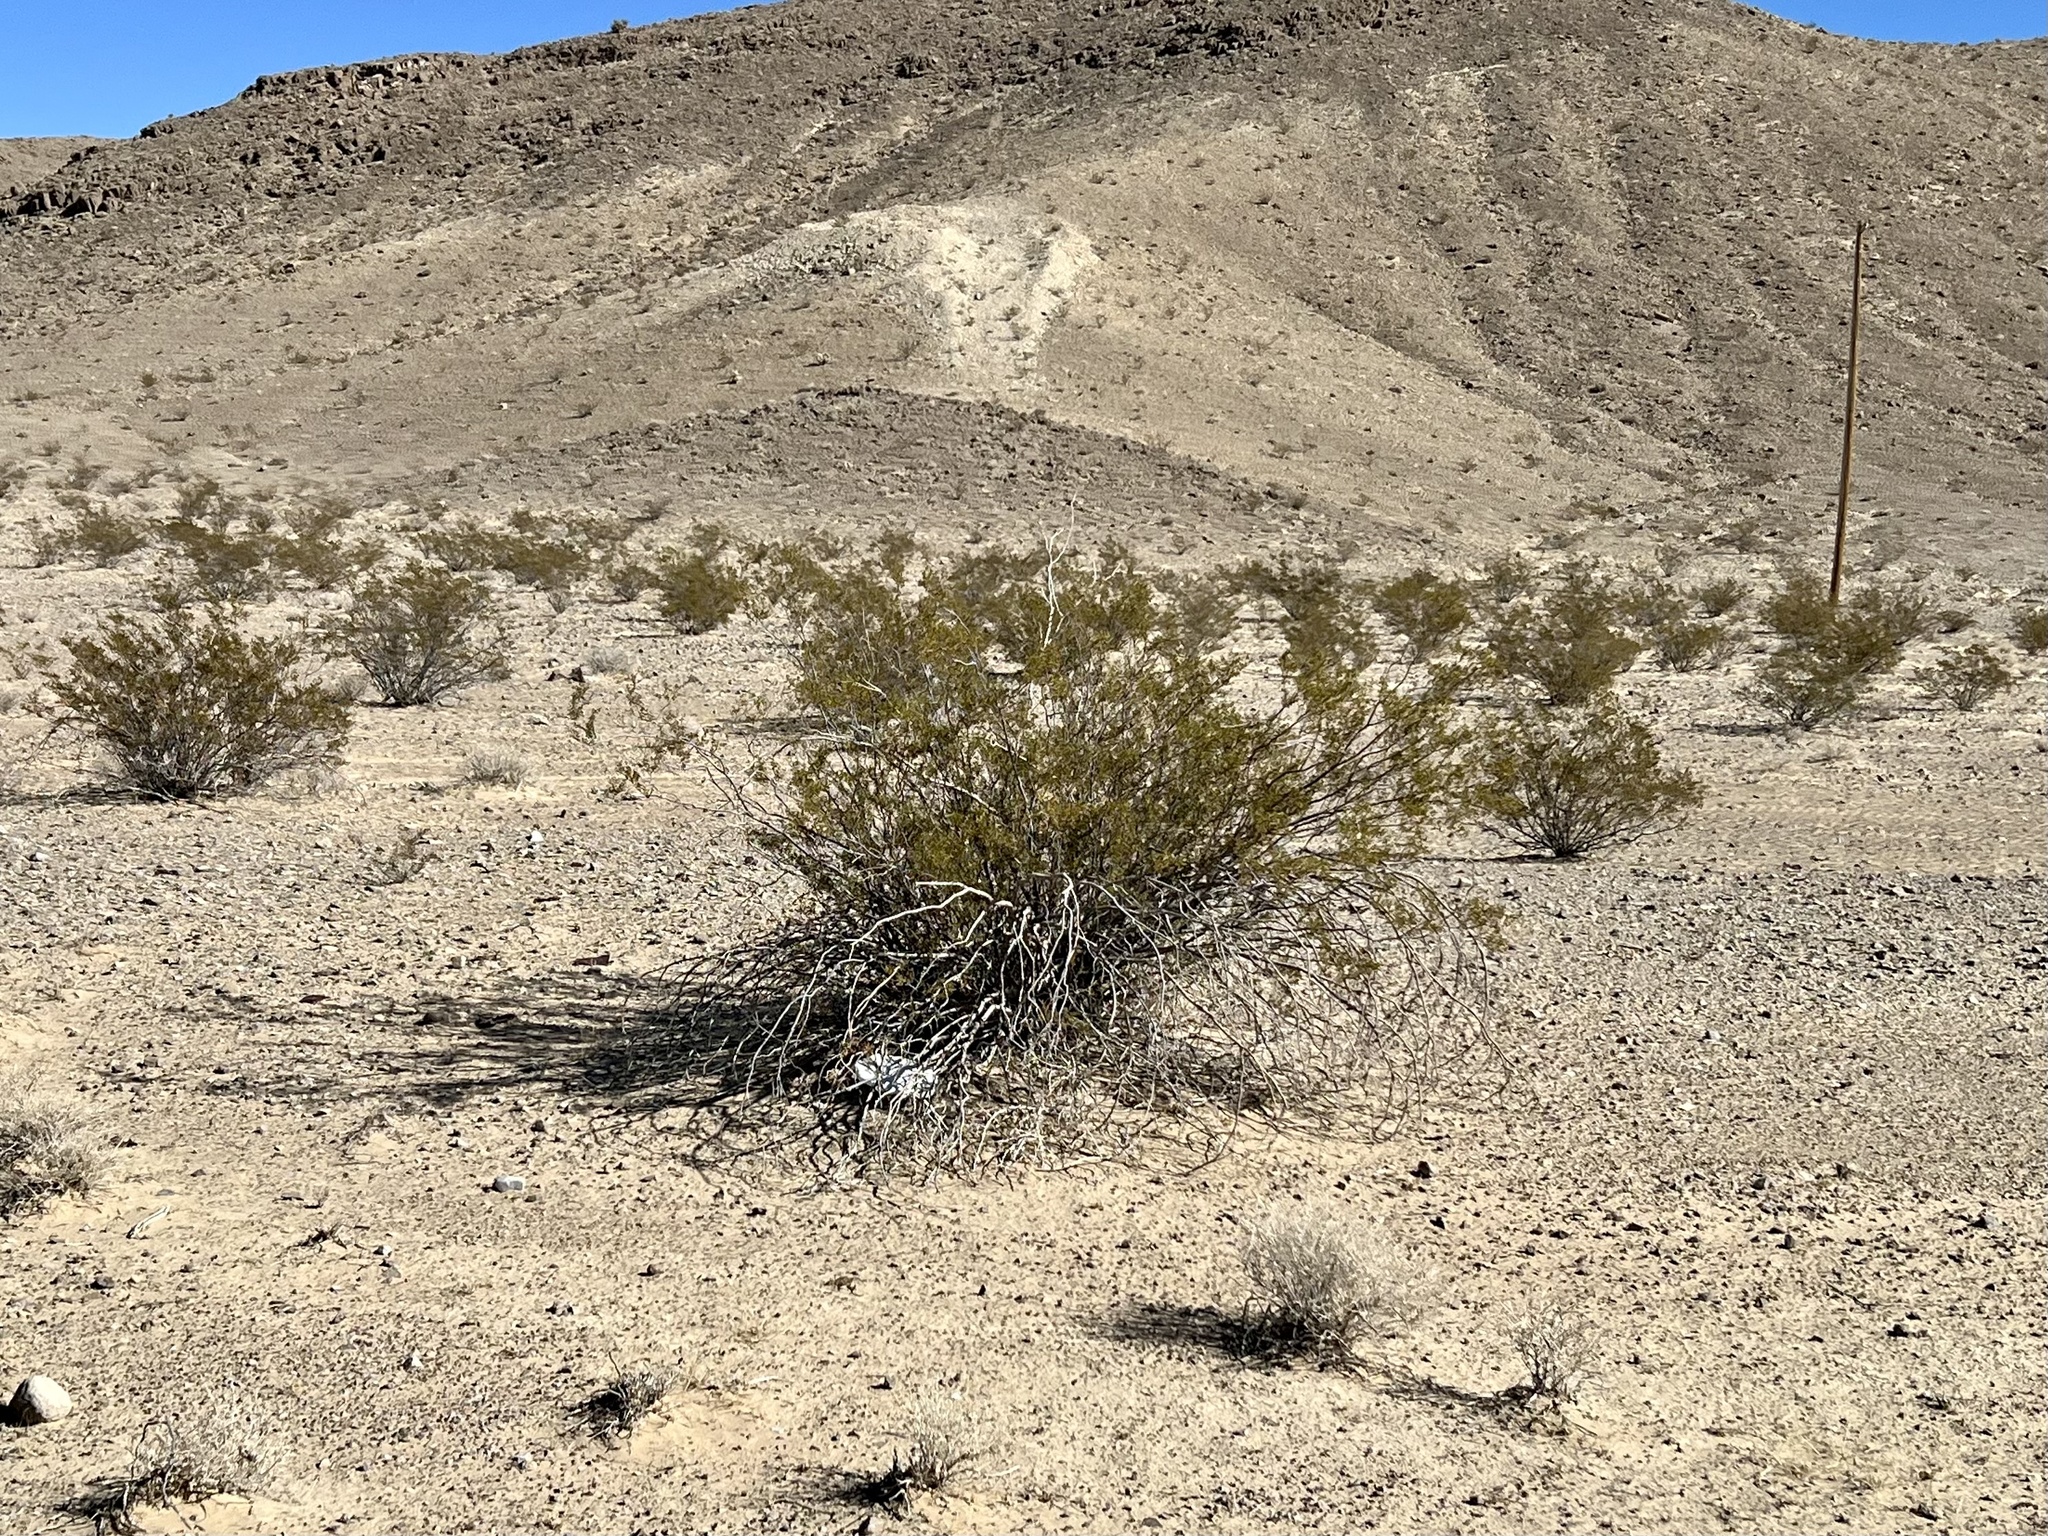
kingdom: Plantae
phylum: Tracheophyta
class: Magnoliopsida
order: Zygophyllales
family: Zygophyllaceae
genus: Larrea
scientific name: Larrea tridentata
